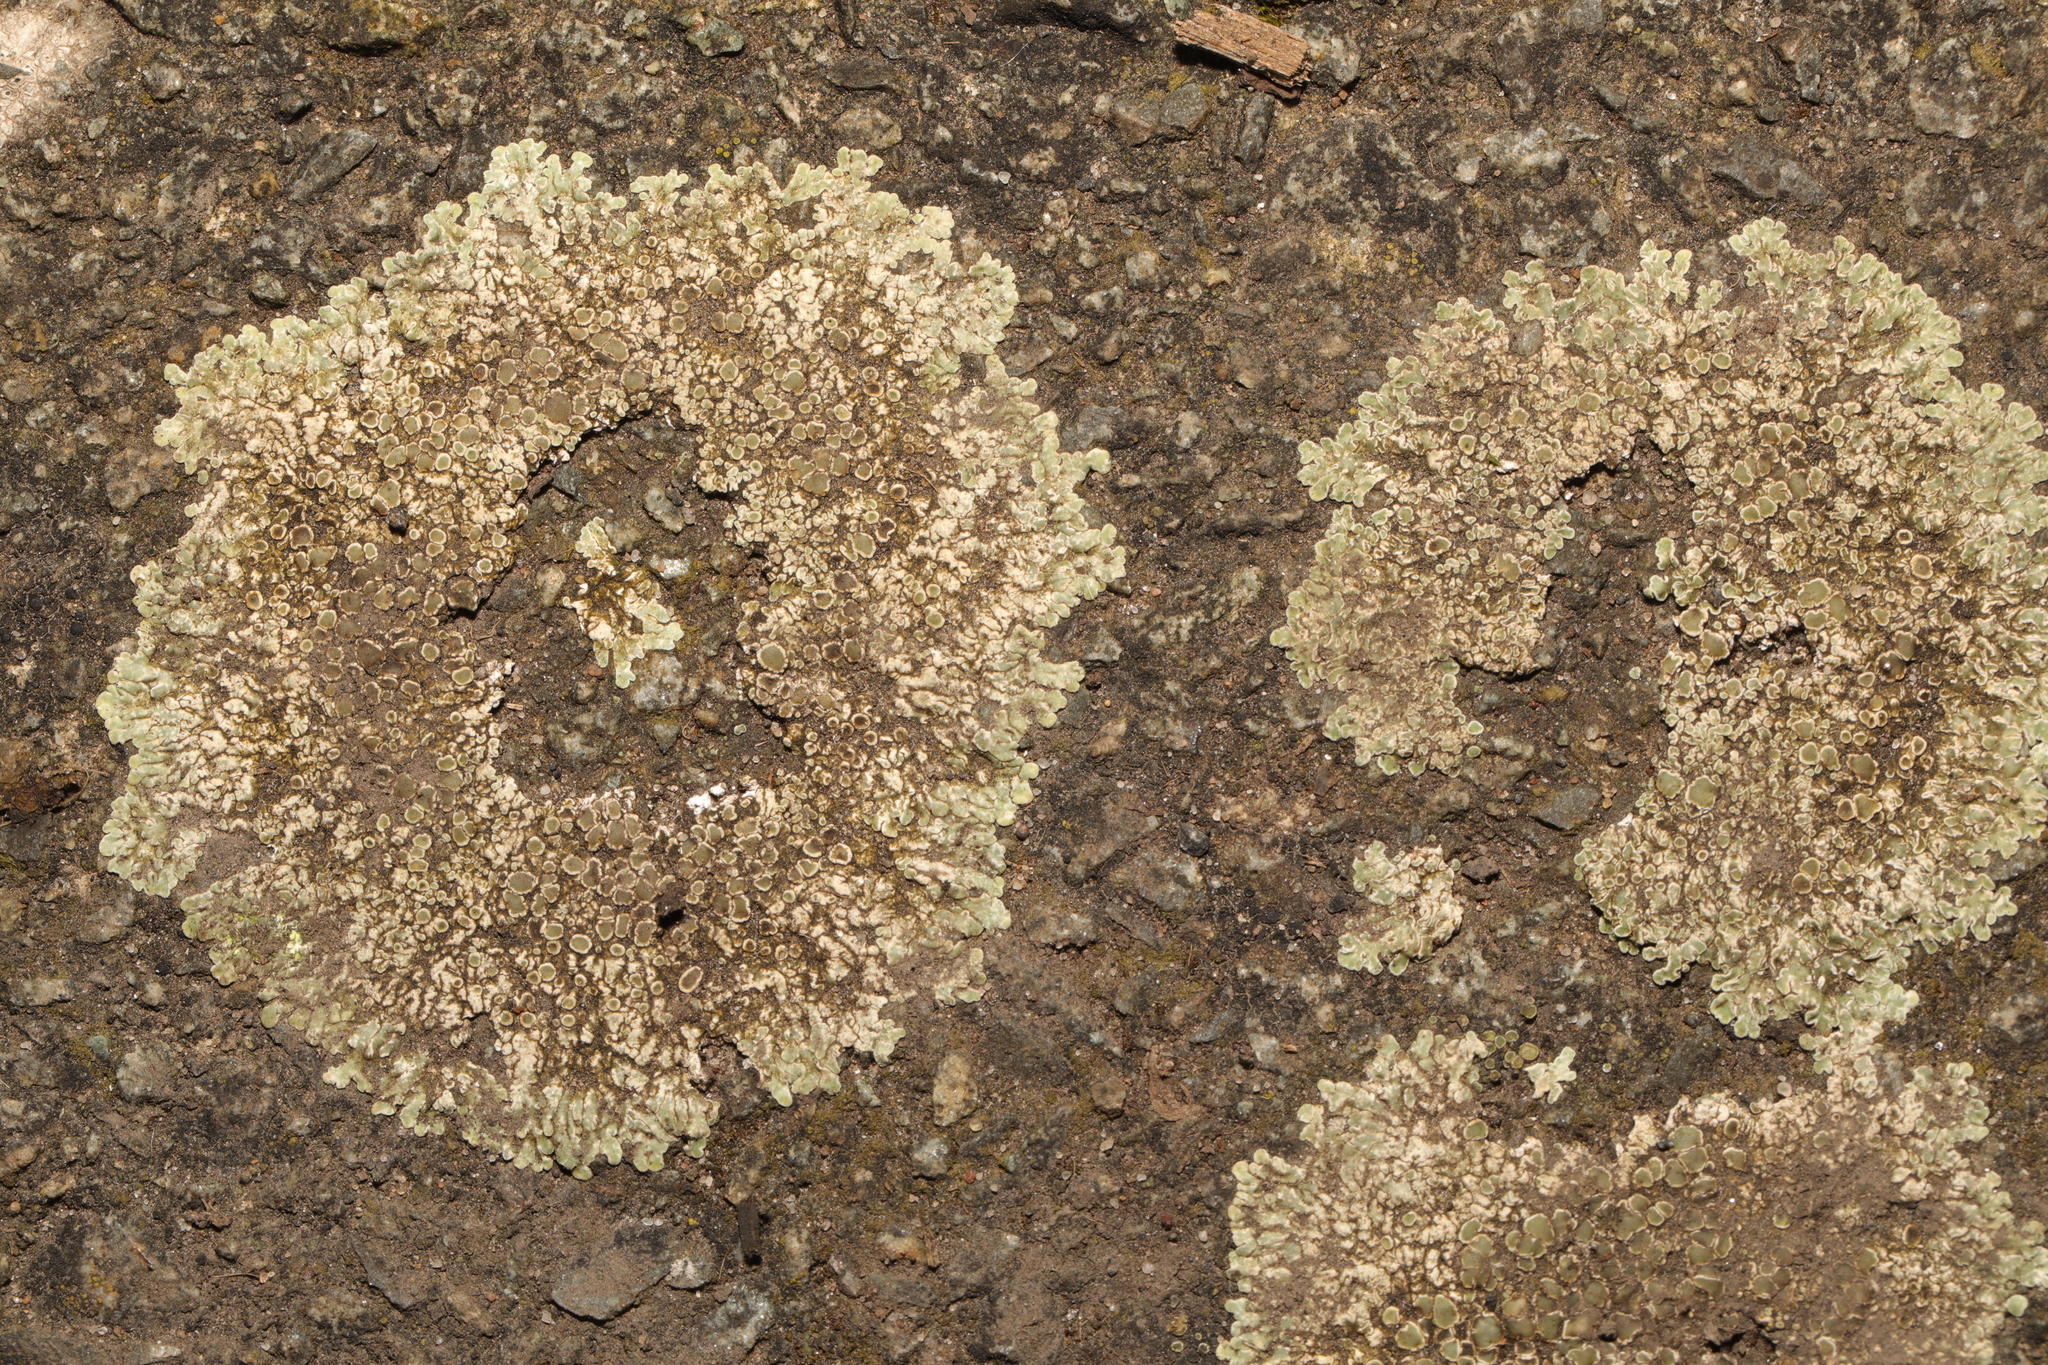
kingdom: Fungi
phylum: Ascomycota
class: Lecanoromycetes
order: Lecanorales
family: Lecanoraceae
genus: Protoparmeliopsis
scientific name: Protoparmeliopsis muralis
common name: Stonewall rim lichen
